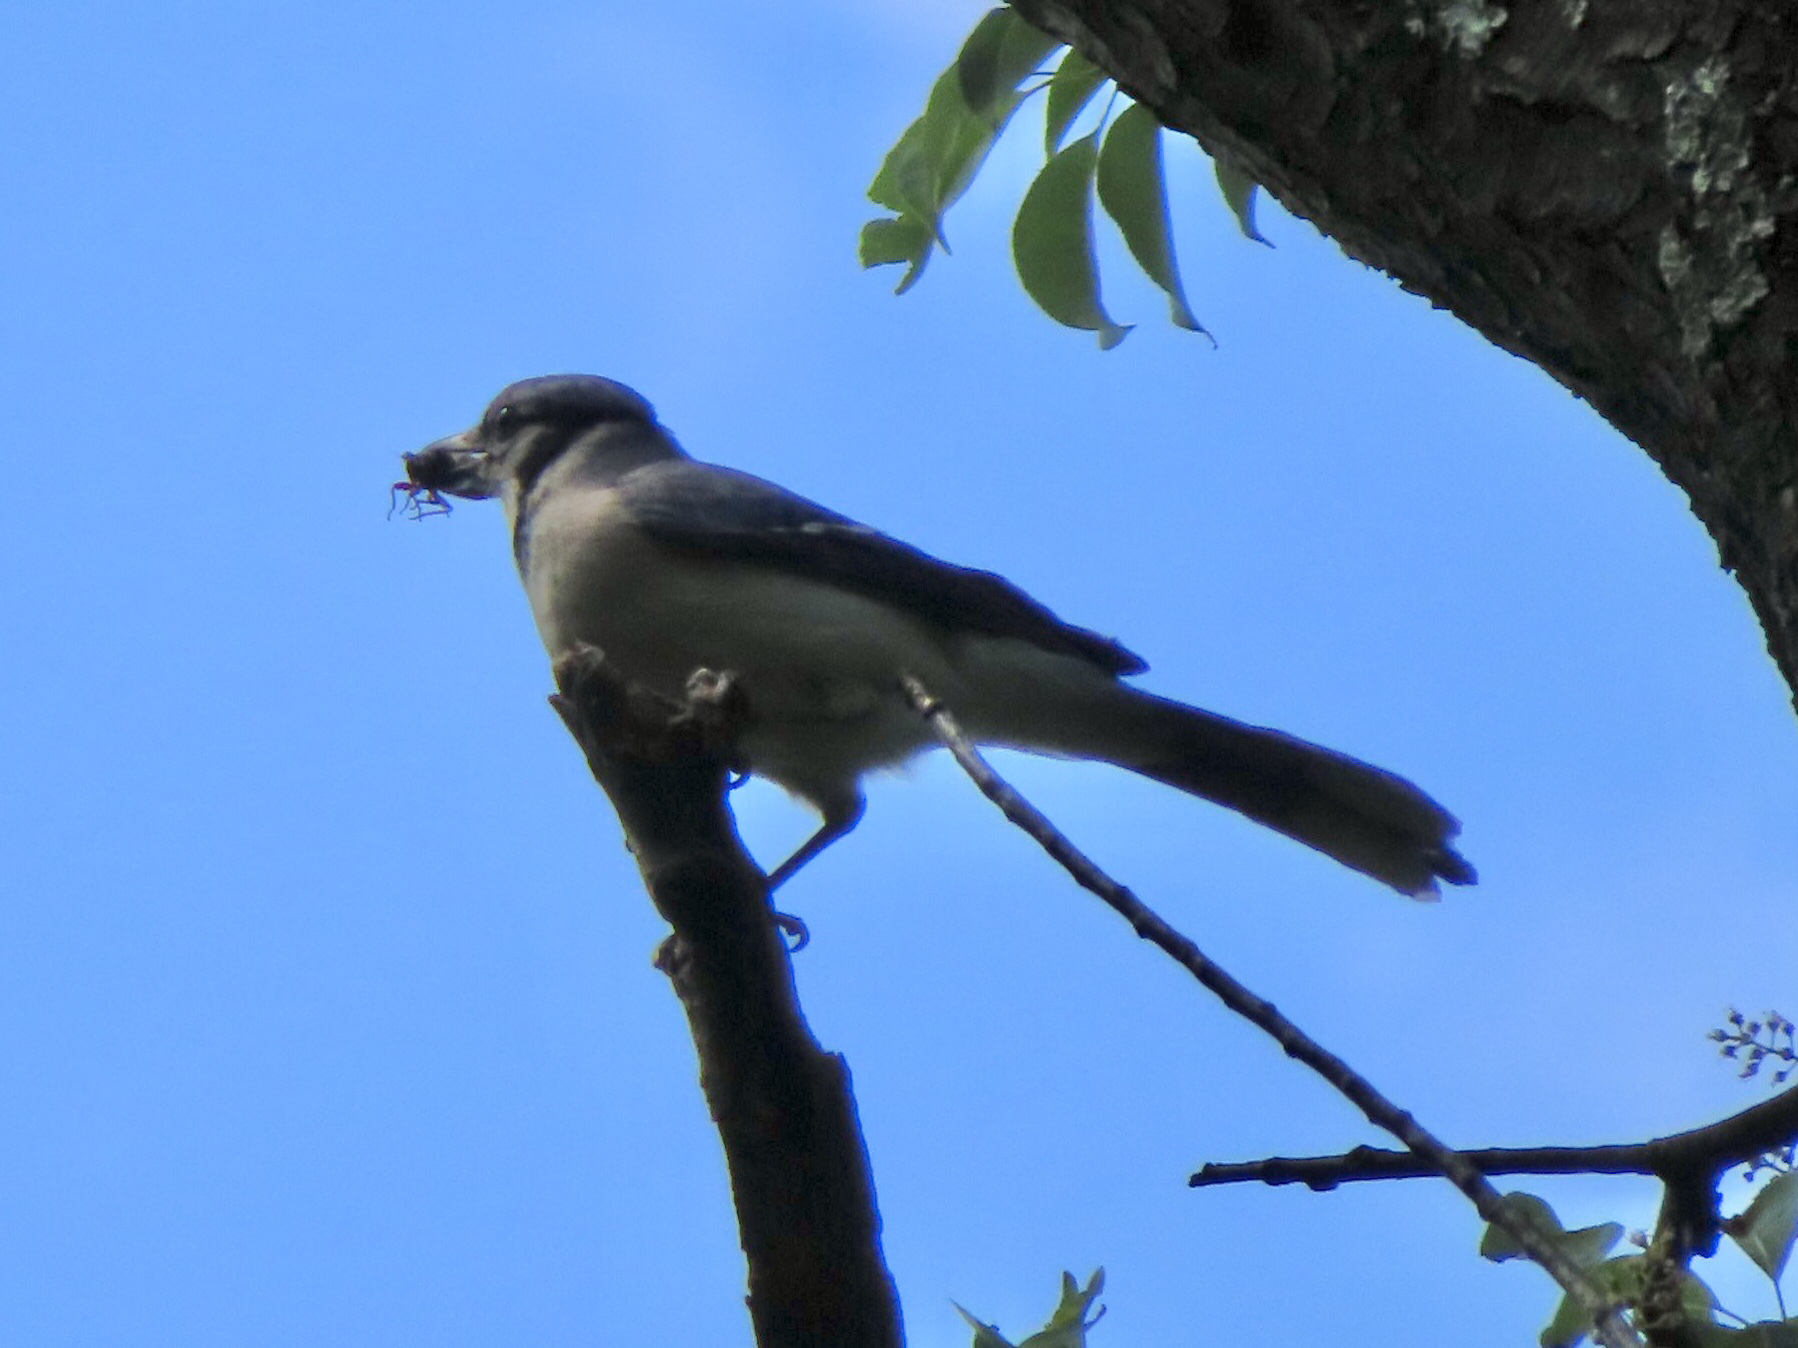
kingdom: Animalia
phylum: Chordata
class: Aves
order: Passeriformes
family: Corvidae
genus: Cyanocitta
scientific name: Cyanocitta cristata
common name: Blue jay
